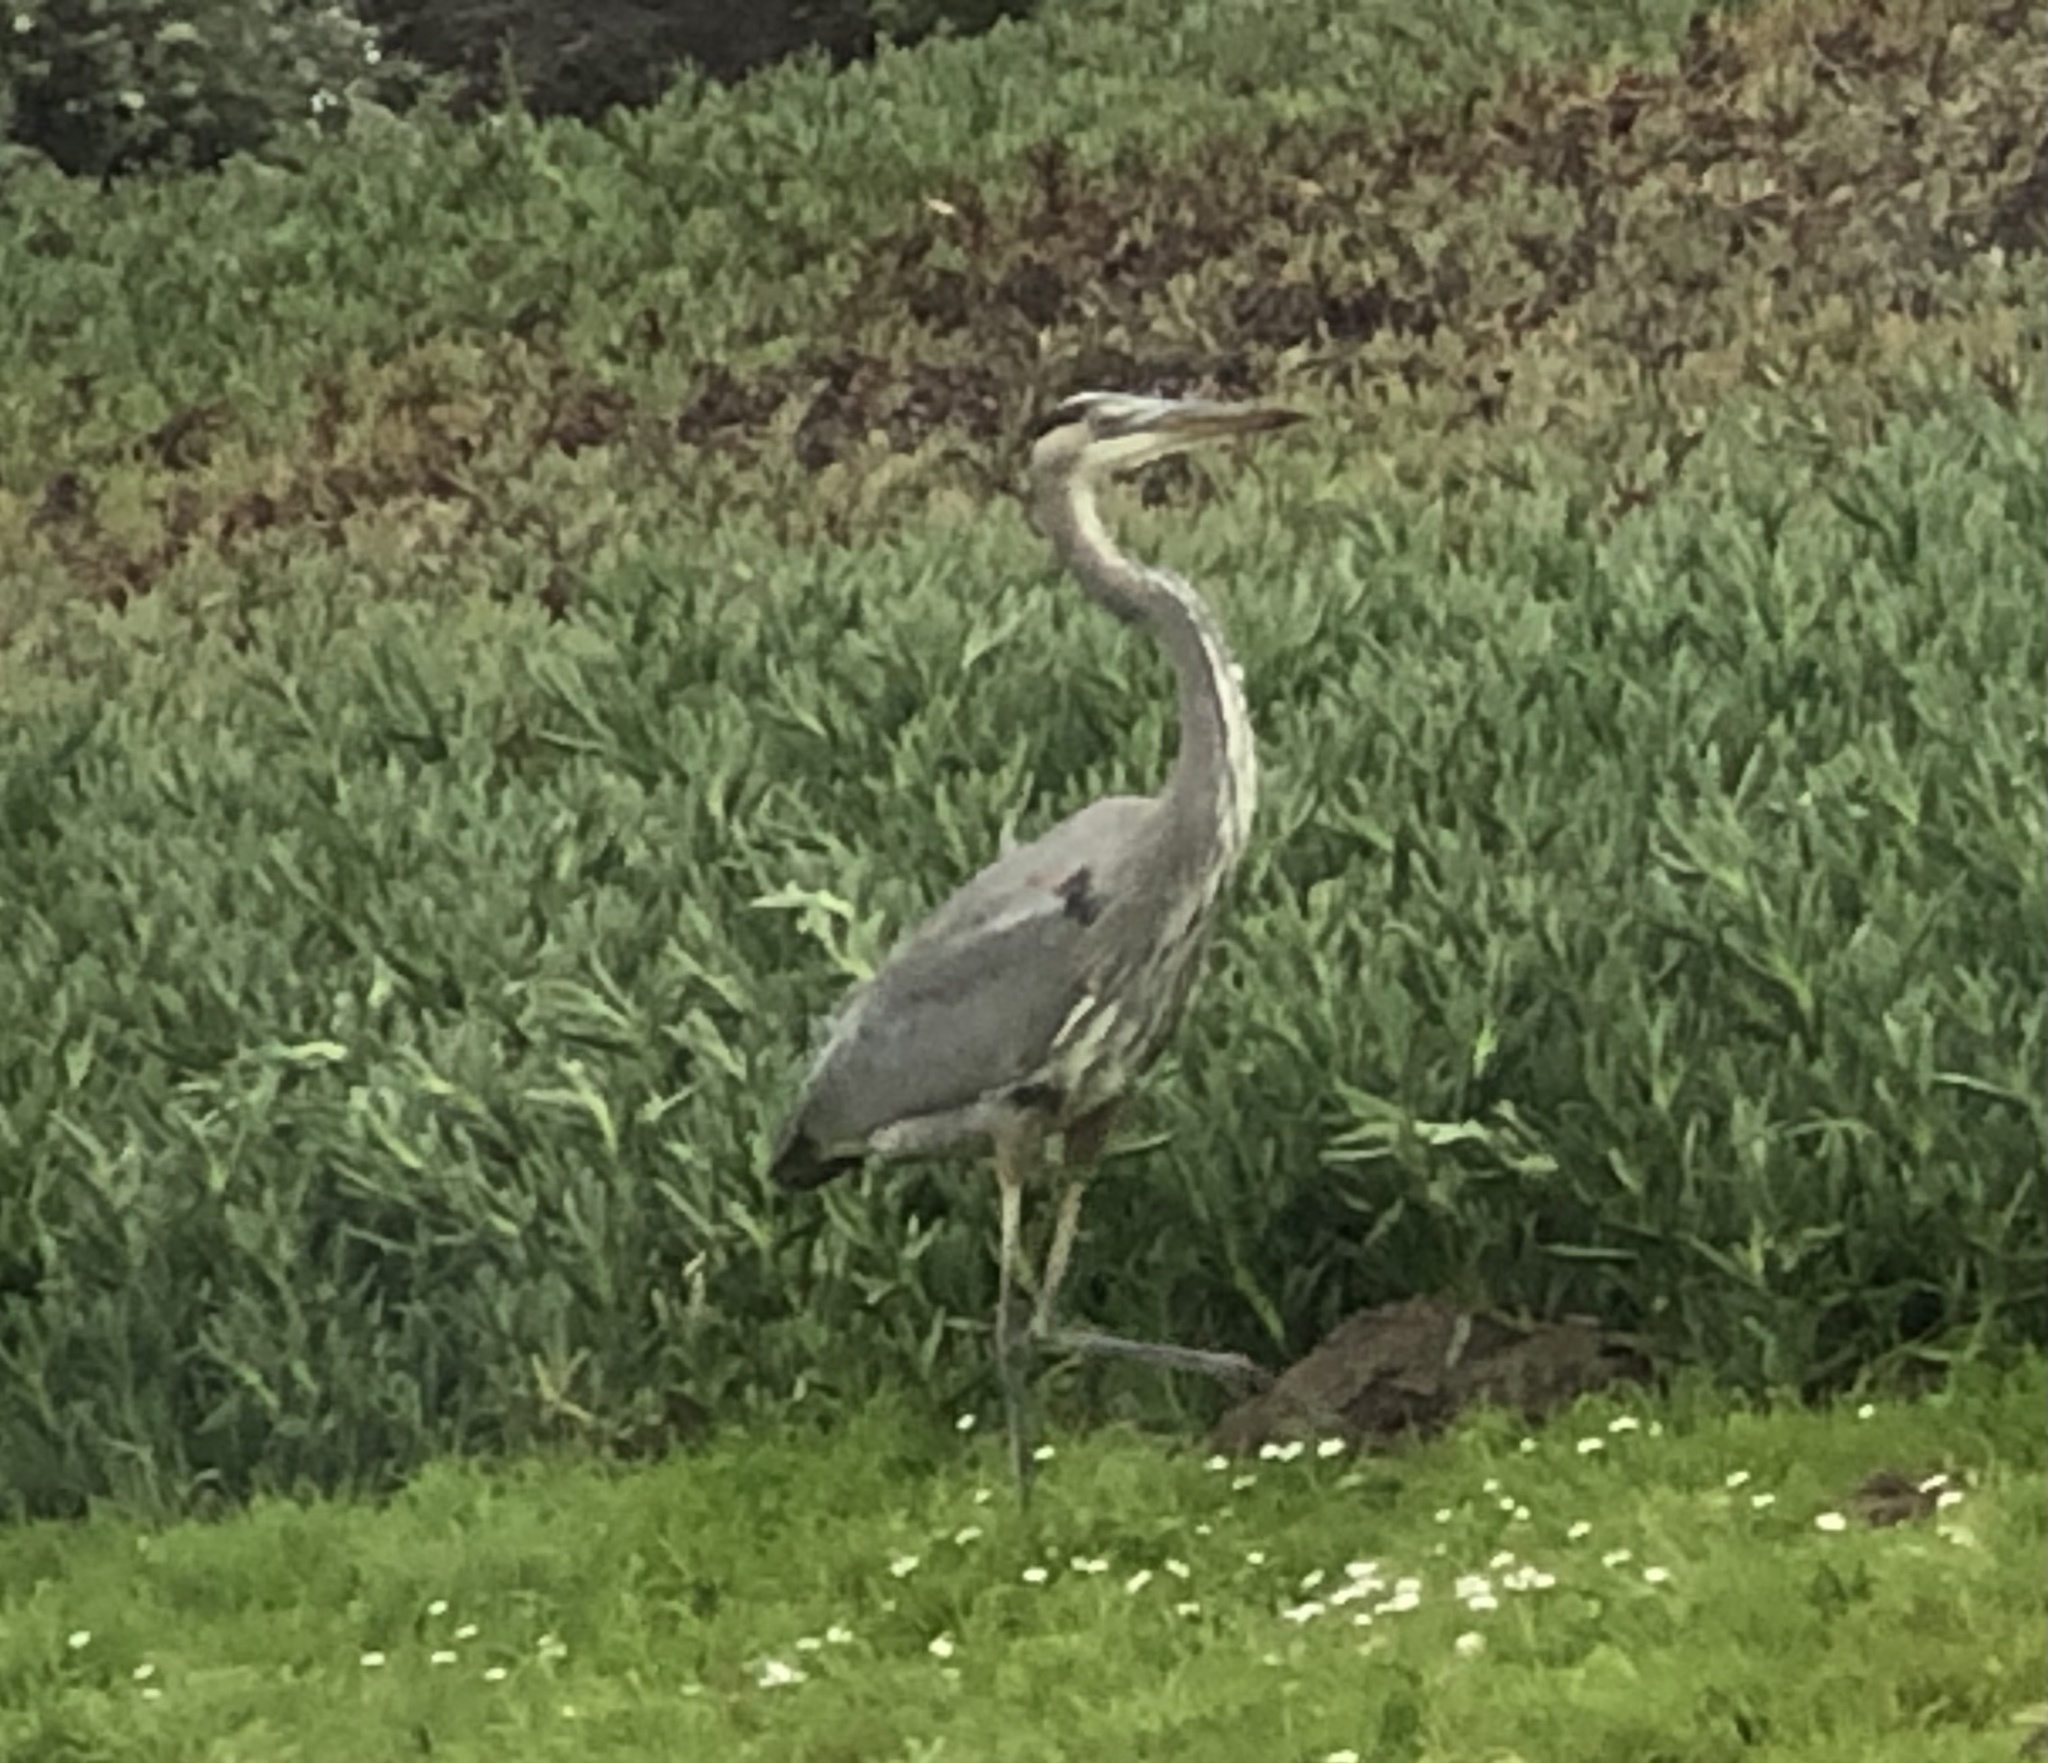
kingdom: Animalia
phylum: Chordata
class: Aves
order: Pelecaniformes
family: Ardeidae
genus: Ardea
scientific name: Ardea herodias
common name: Great blue heron
